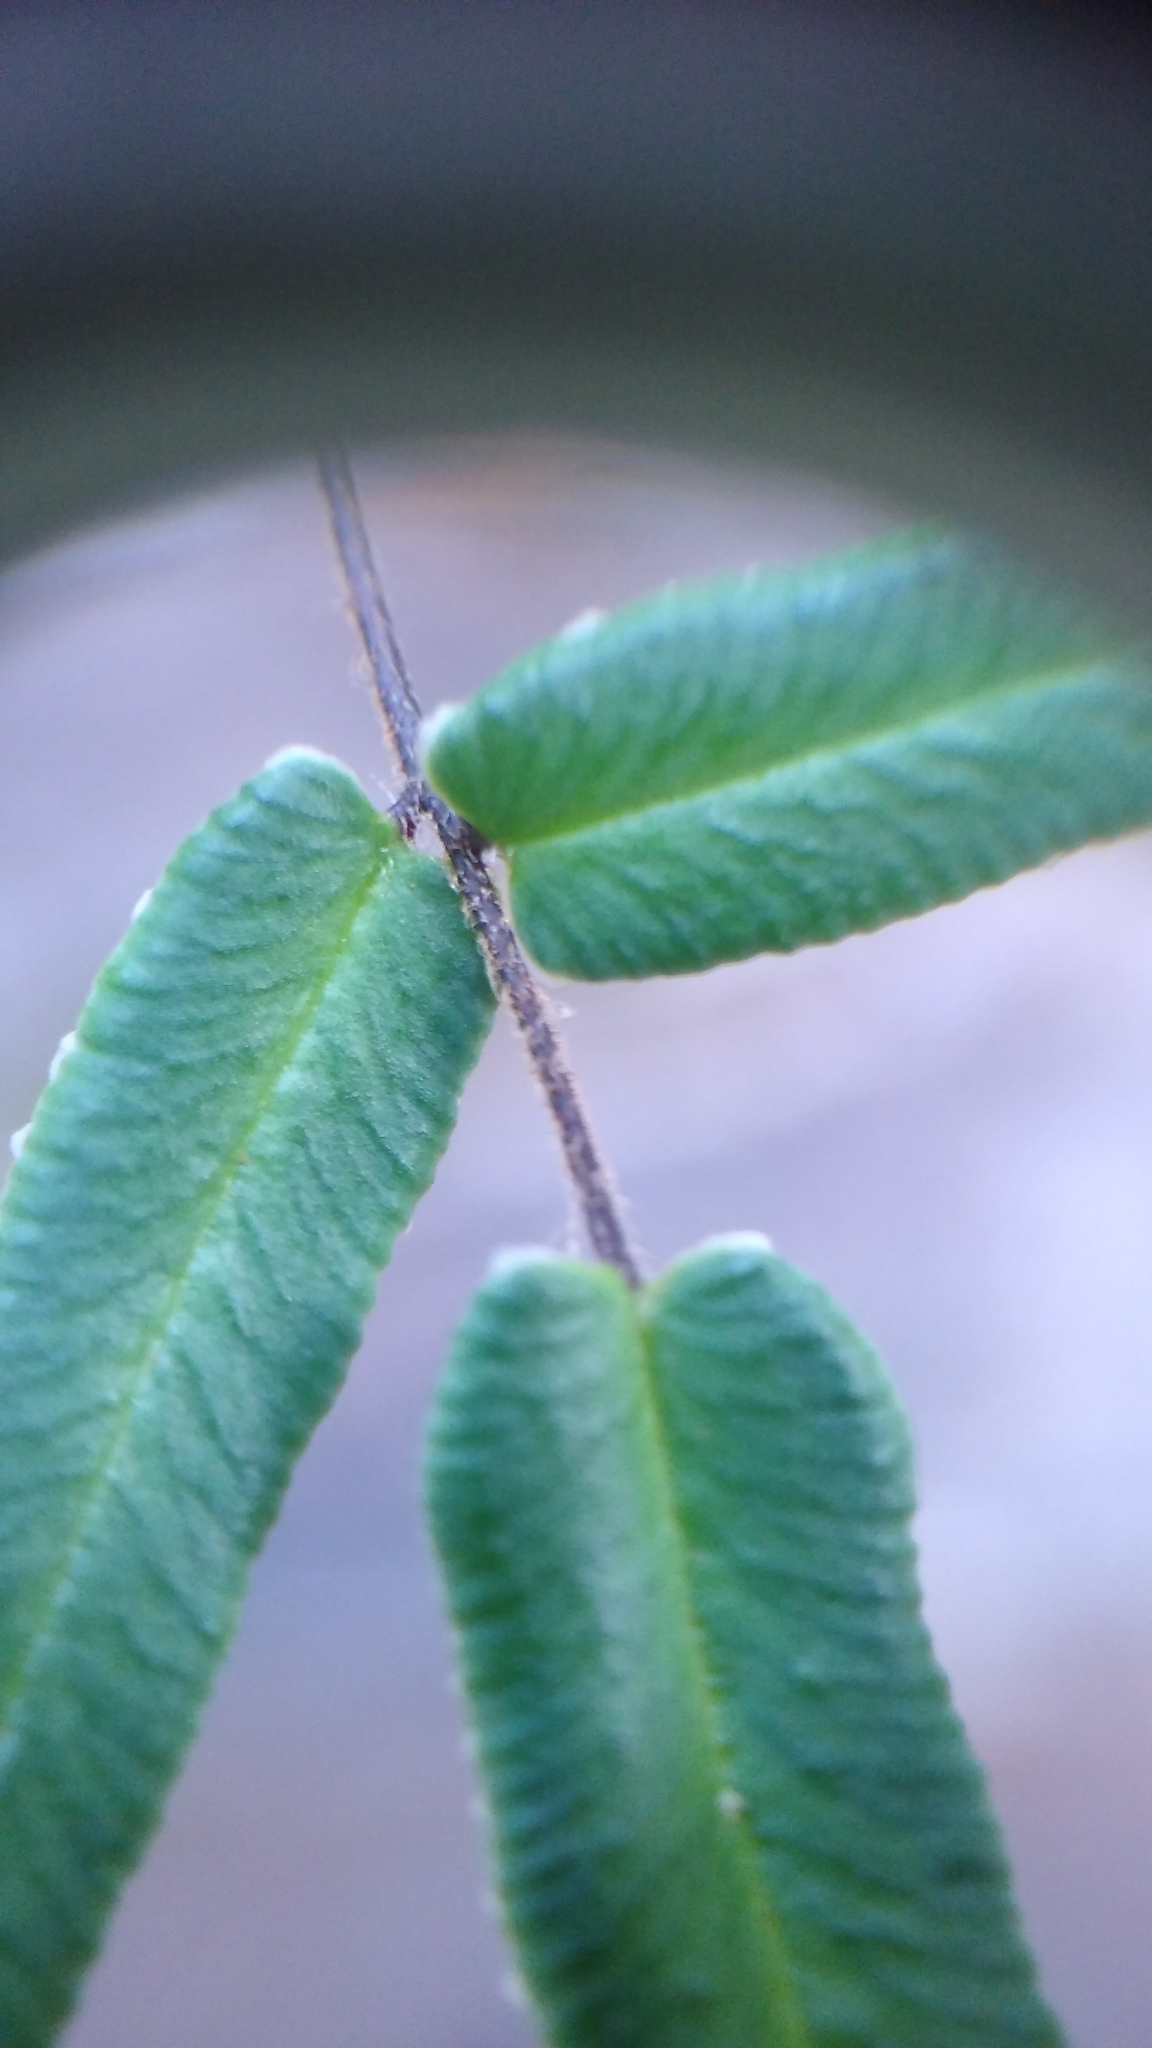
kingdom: Plantae
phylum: Tracheophyta
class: Polypodiopsida
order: Polypodiales
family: Pteridaceae
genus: Pellaea
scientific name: Pellaea atropurpurea
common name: Hairy cliffbrake
